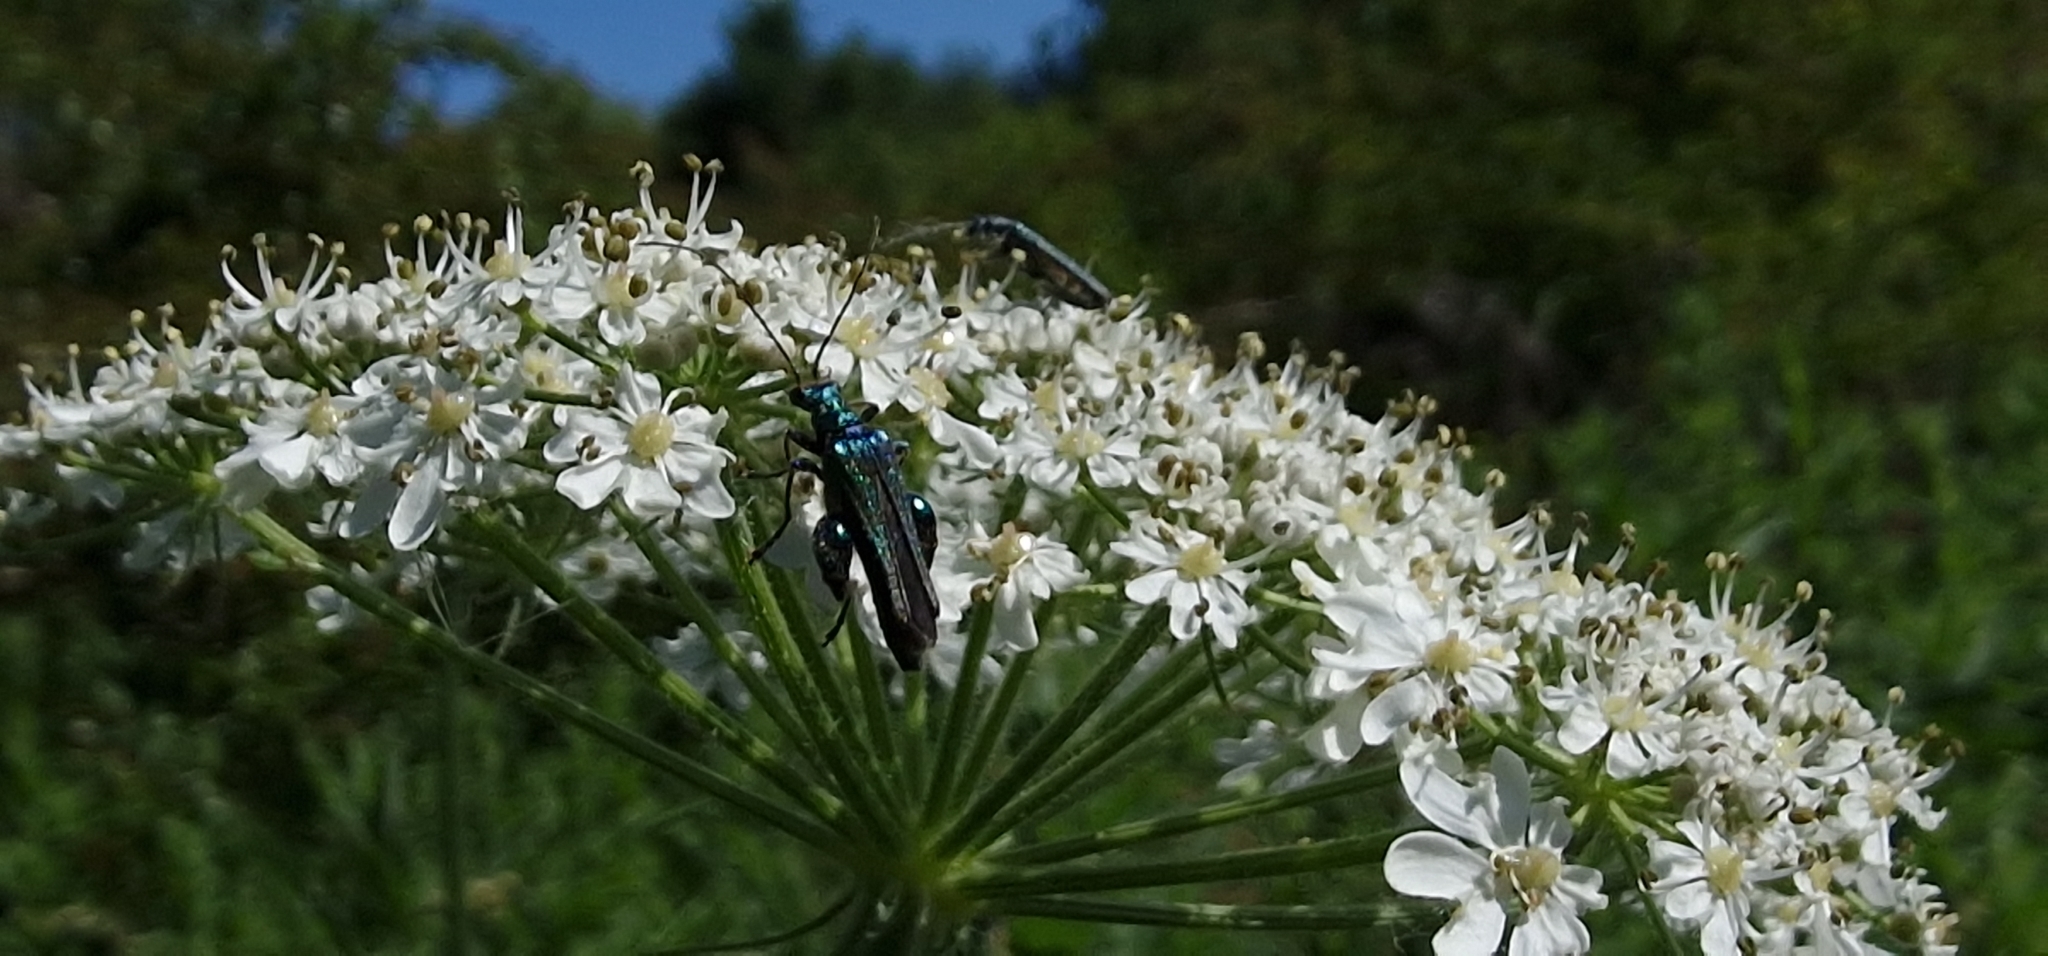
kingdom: Animalia
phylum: Arthropoda
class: Insecta
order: Coleoptera
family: Oedemeridae
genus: Oedemera
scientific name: Oedemera nobilis
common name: Swollen-thighed beetle
